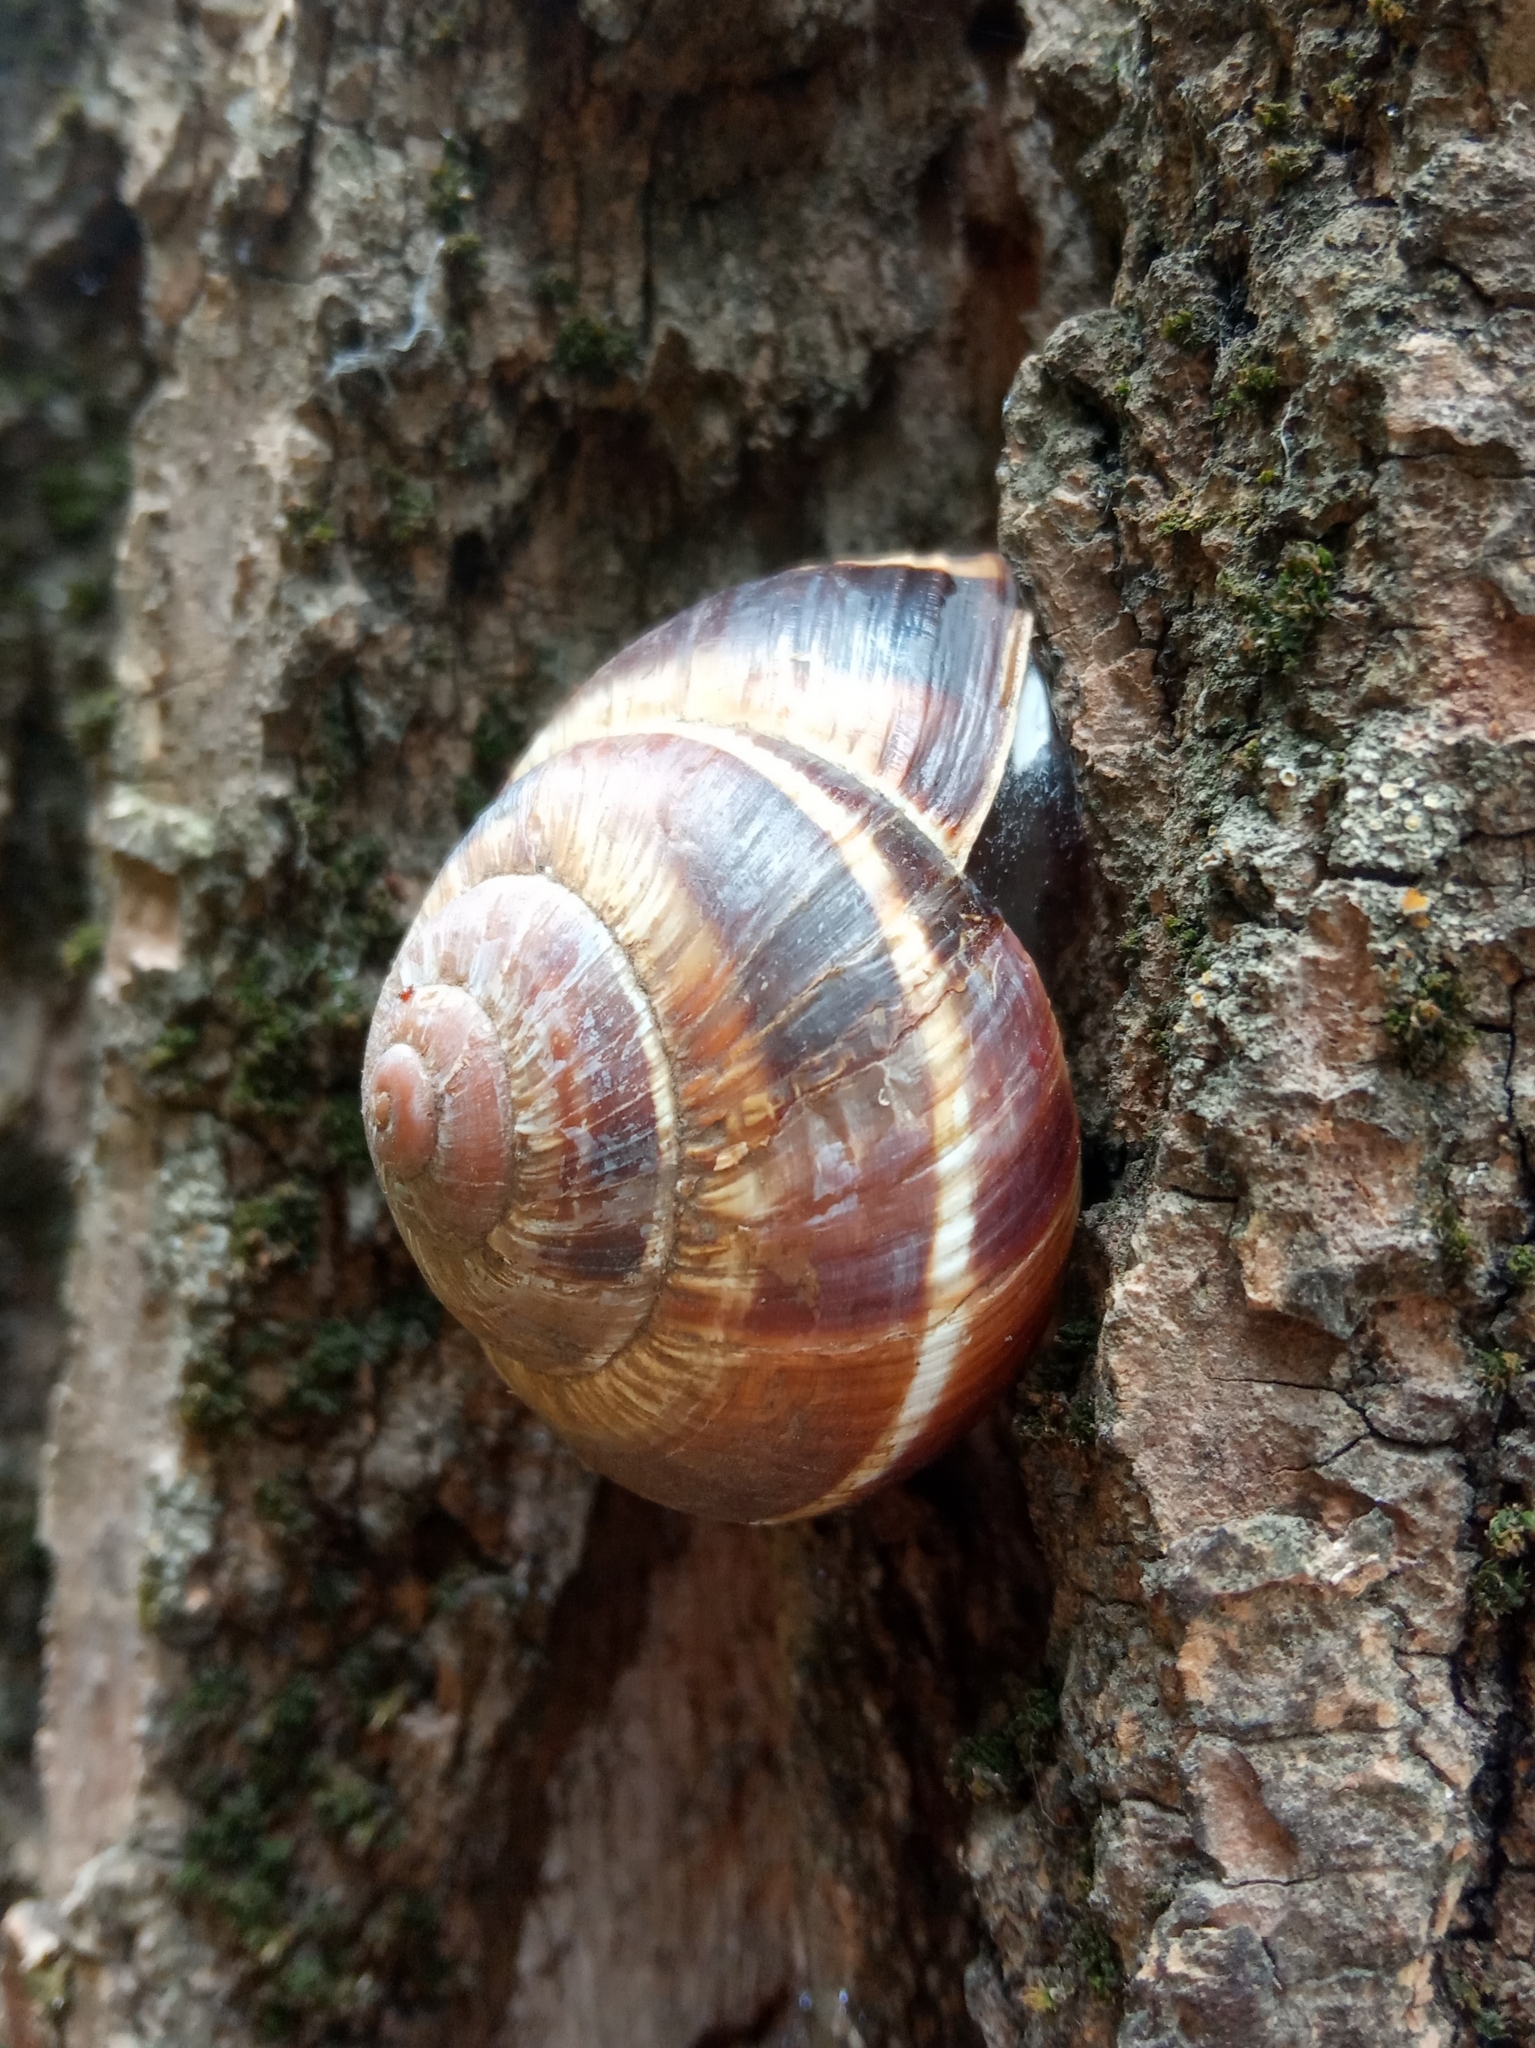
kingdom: Animalia
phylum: Mollusca
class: Gastropoda
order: Stylommatophora
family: Helicidae
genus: Helix
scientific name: Helix lucorum
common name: Turkish snail
